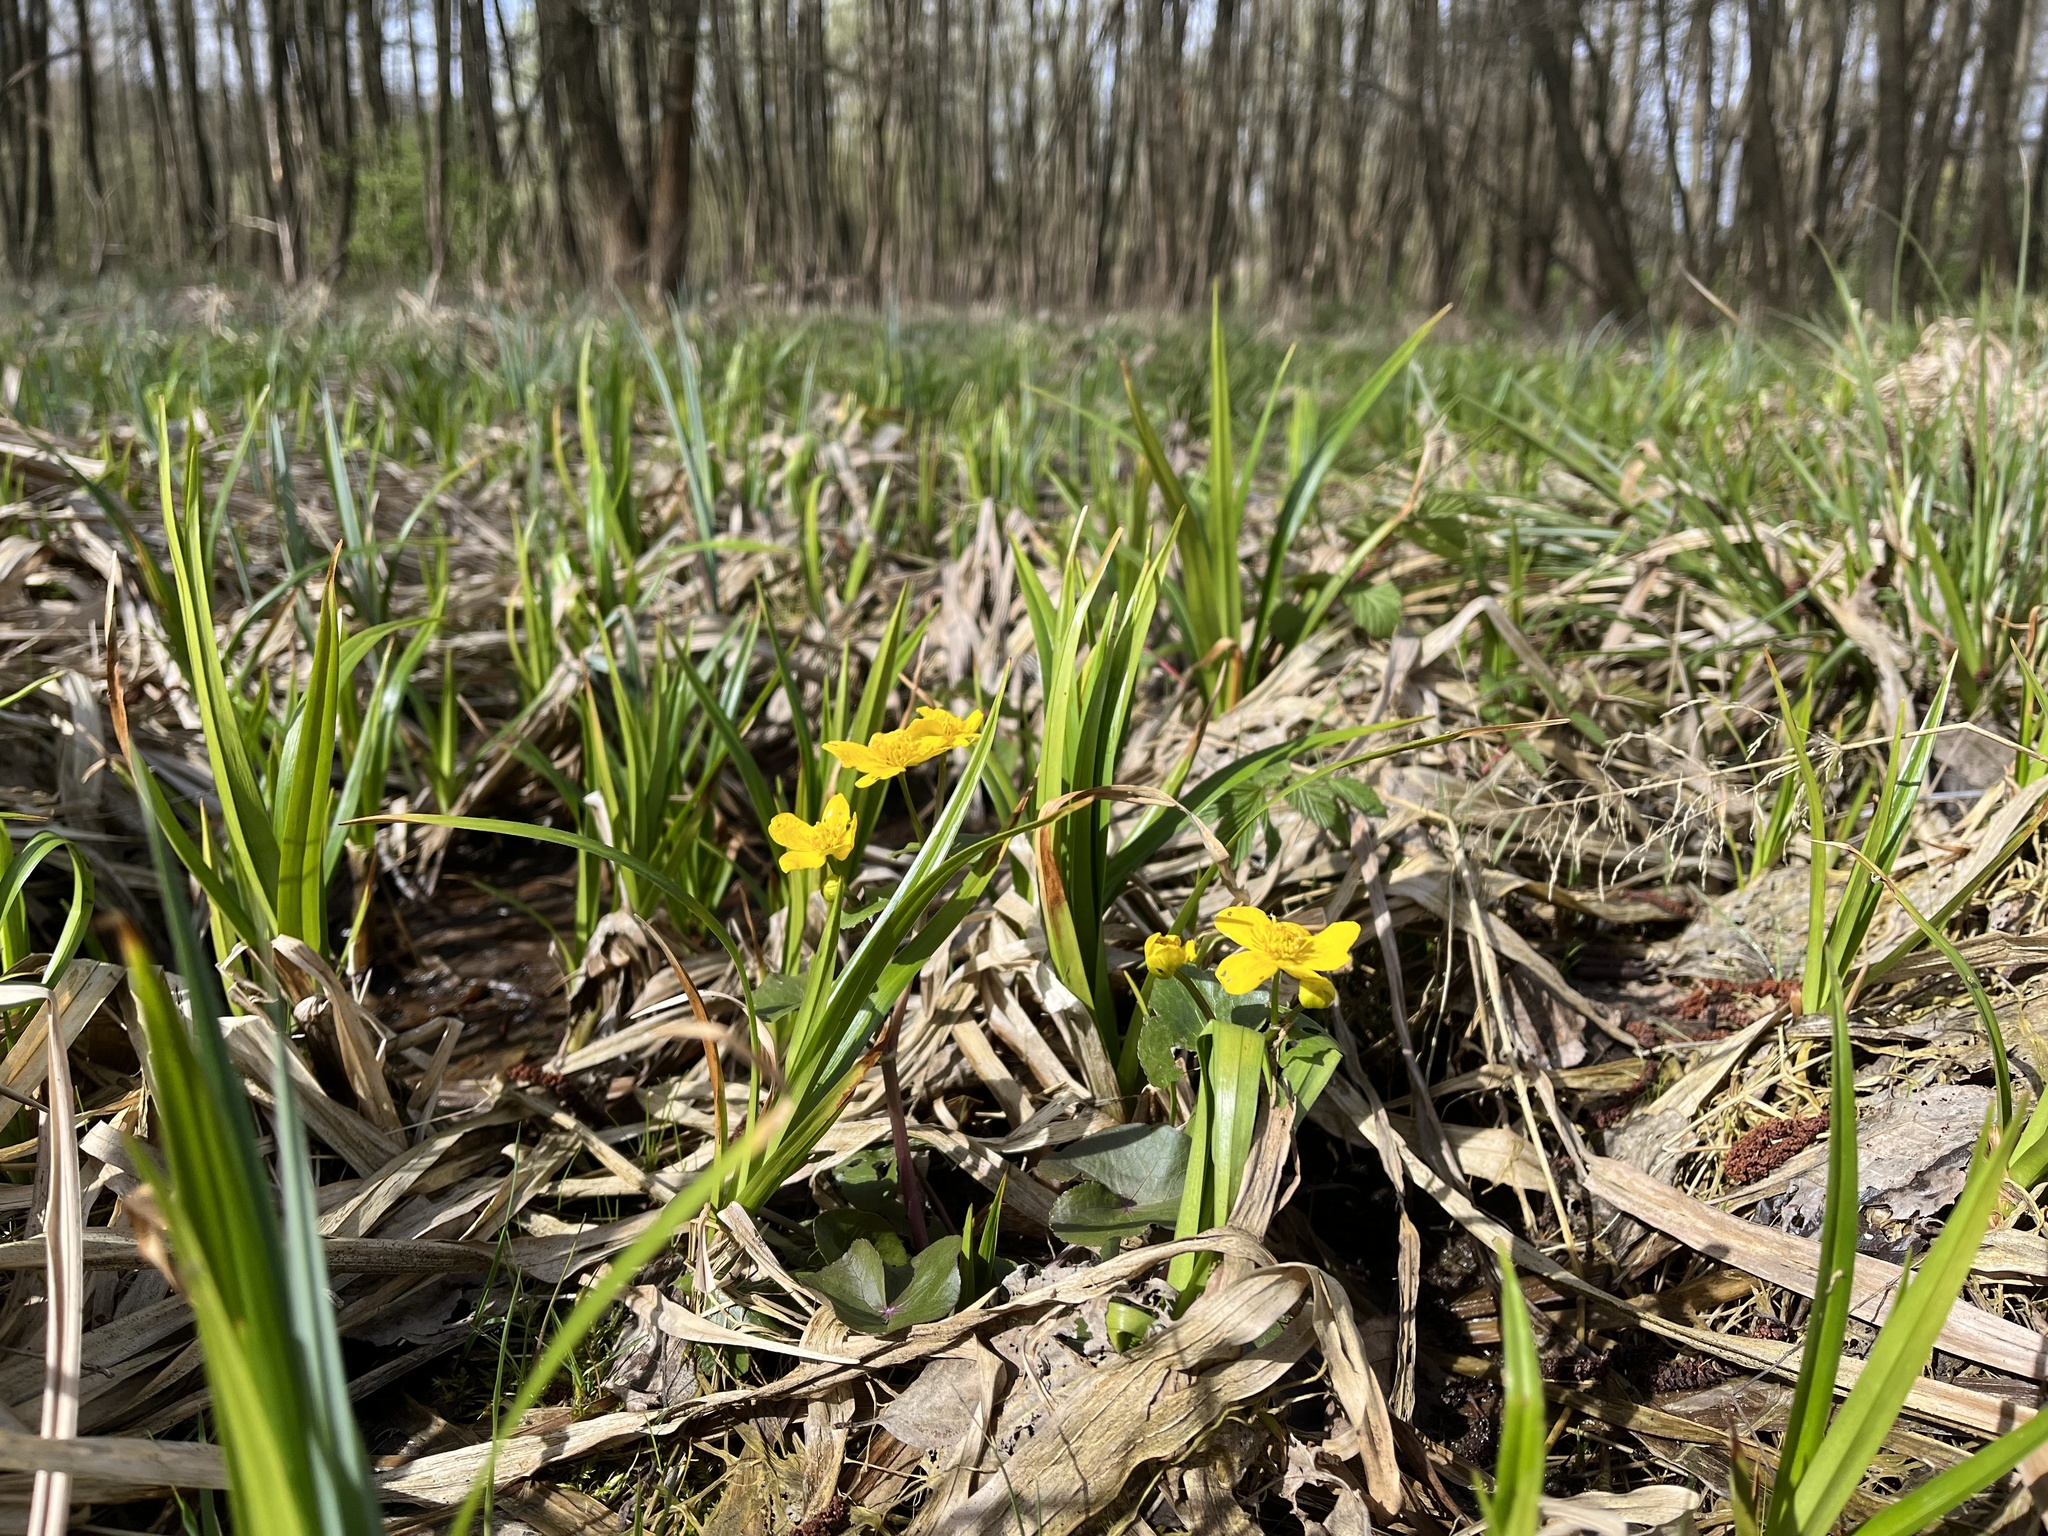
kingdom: Plantae
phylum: Tracheophyta
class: Magnoliopsida
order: Ranunculales
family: Ranunculaceae
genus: Caltha
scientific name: Caltha palustris
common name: Marsh marigold
